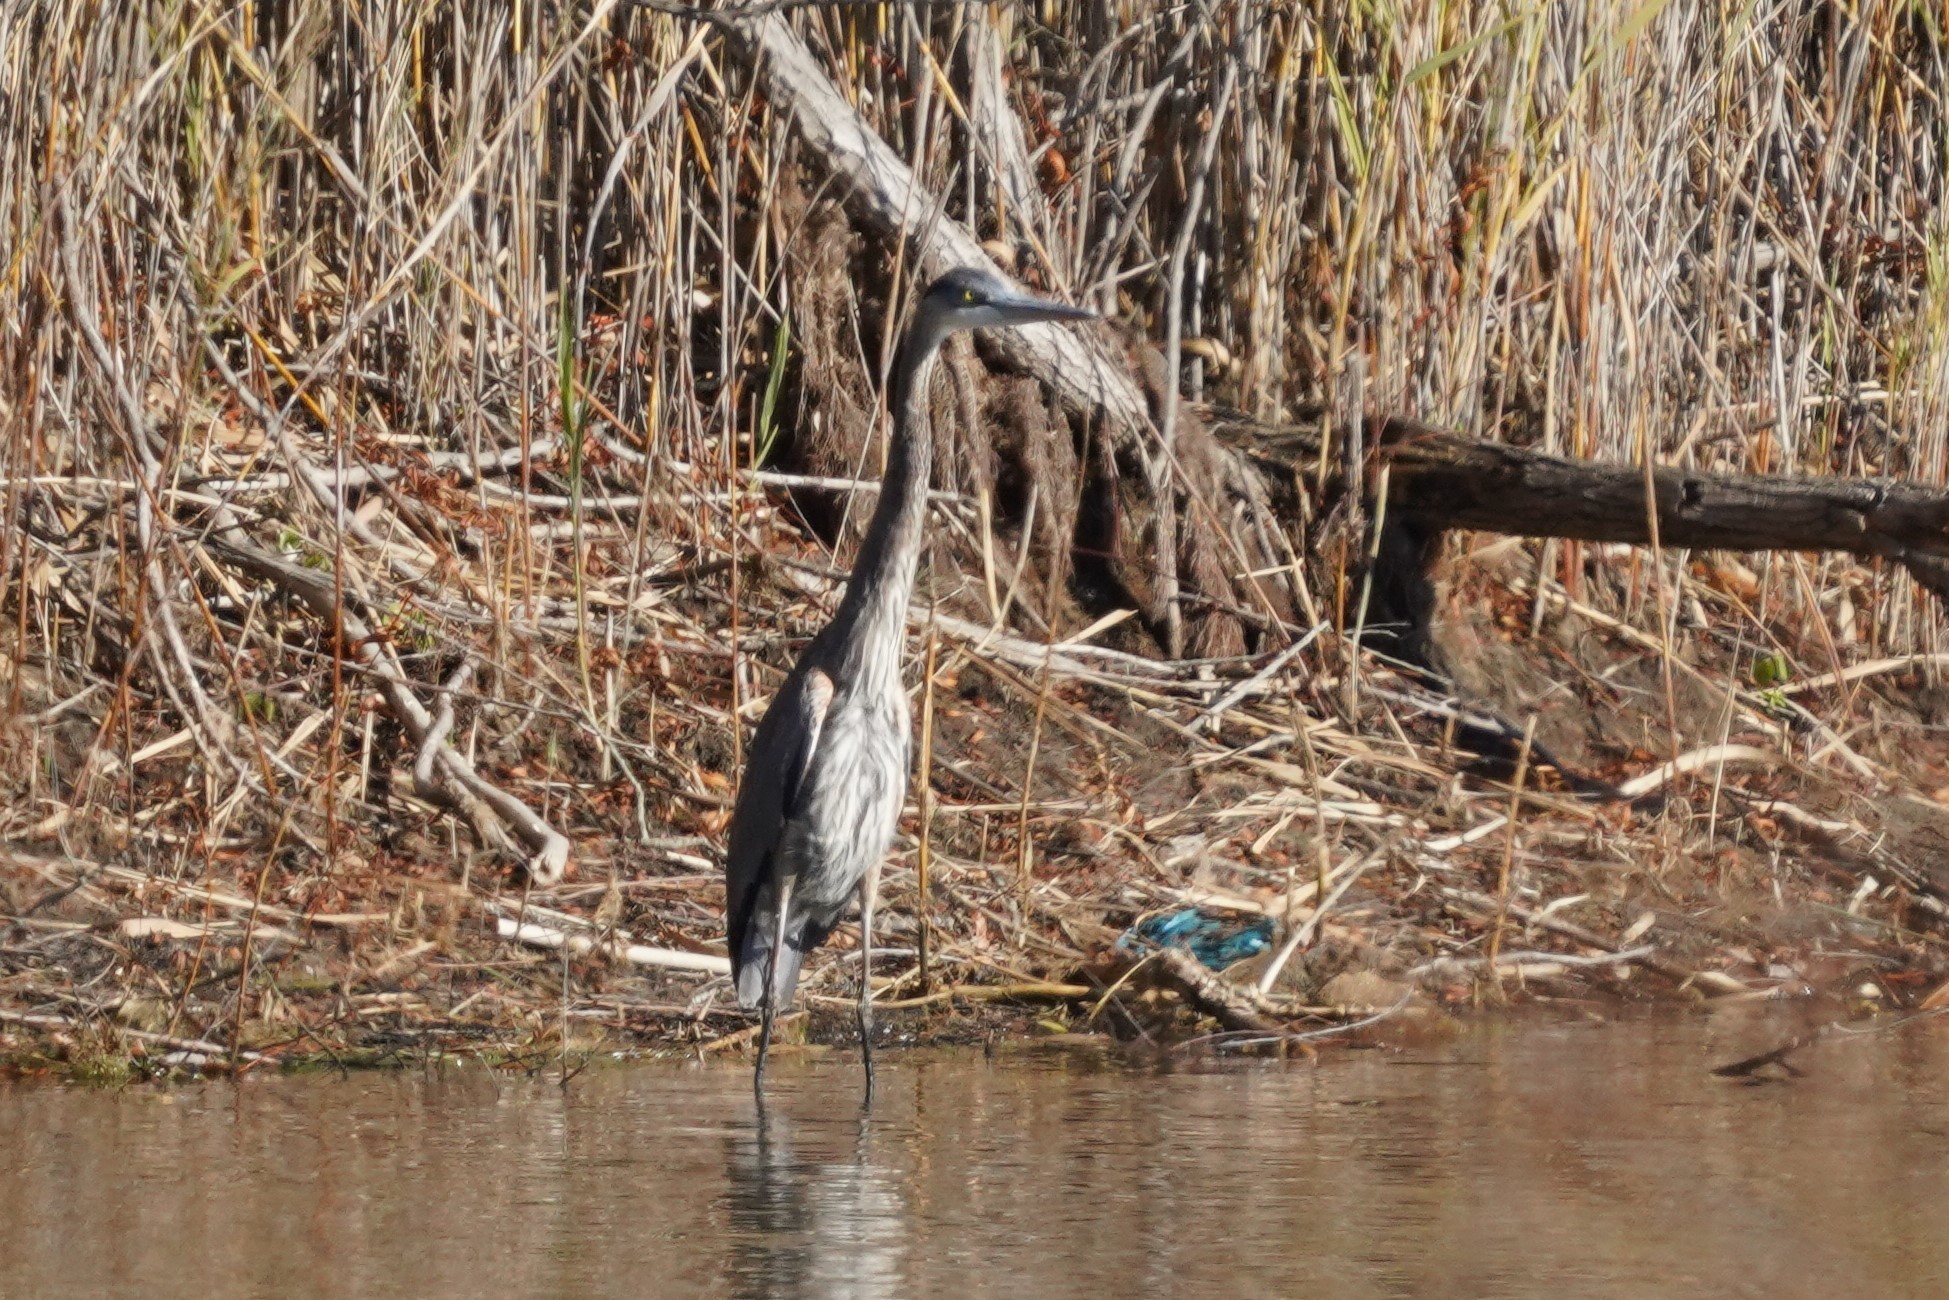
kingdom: Animalia
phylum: Chordata
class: Aves
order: Pelecaniformes
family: Ardeidae
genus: Ardea
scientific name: Ardea herodias
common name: Great blue heron
